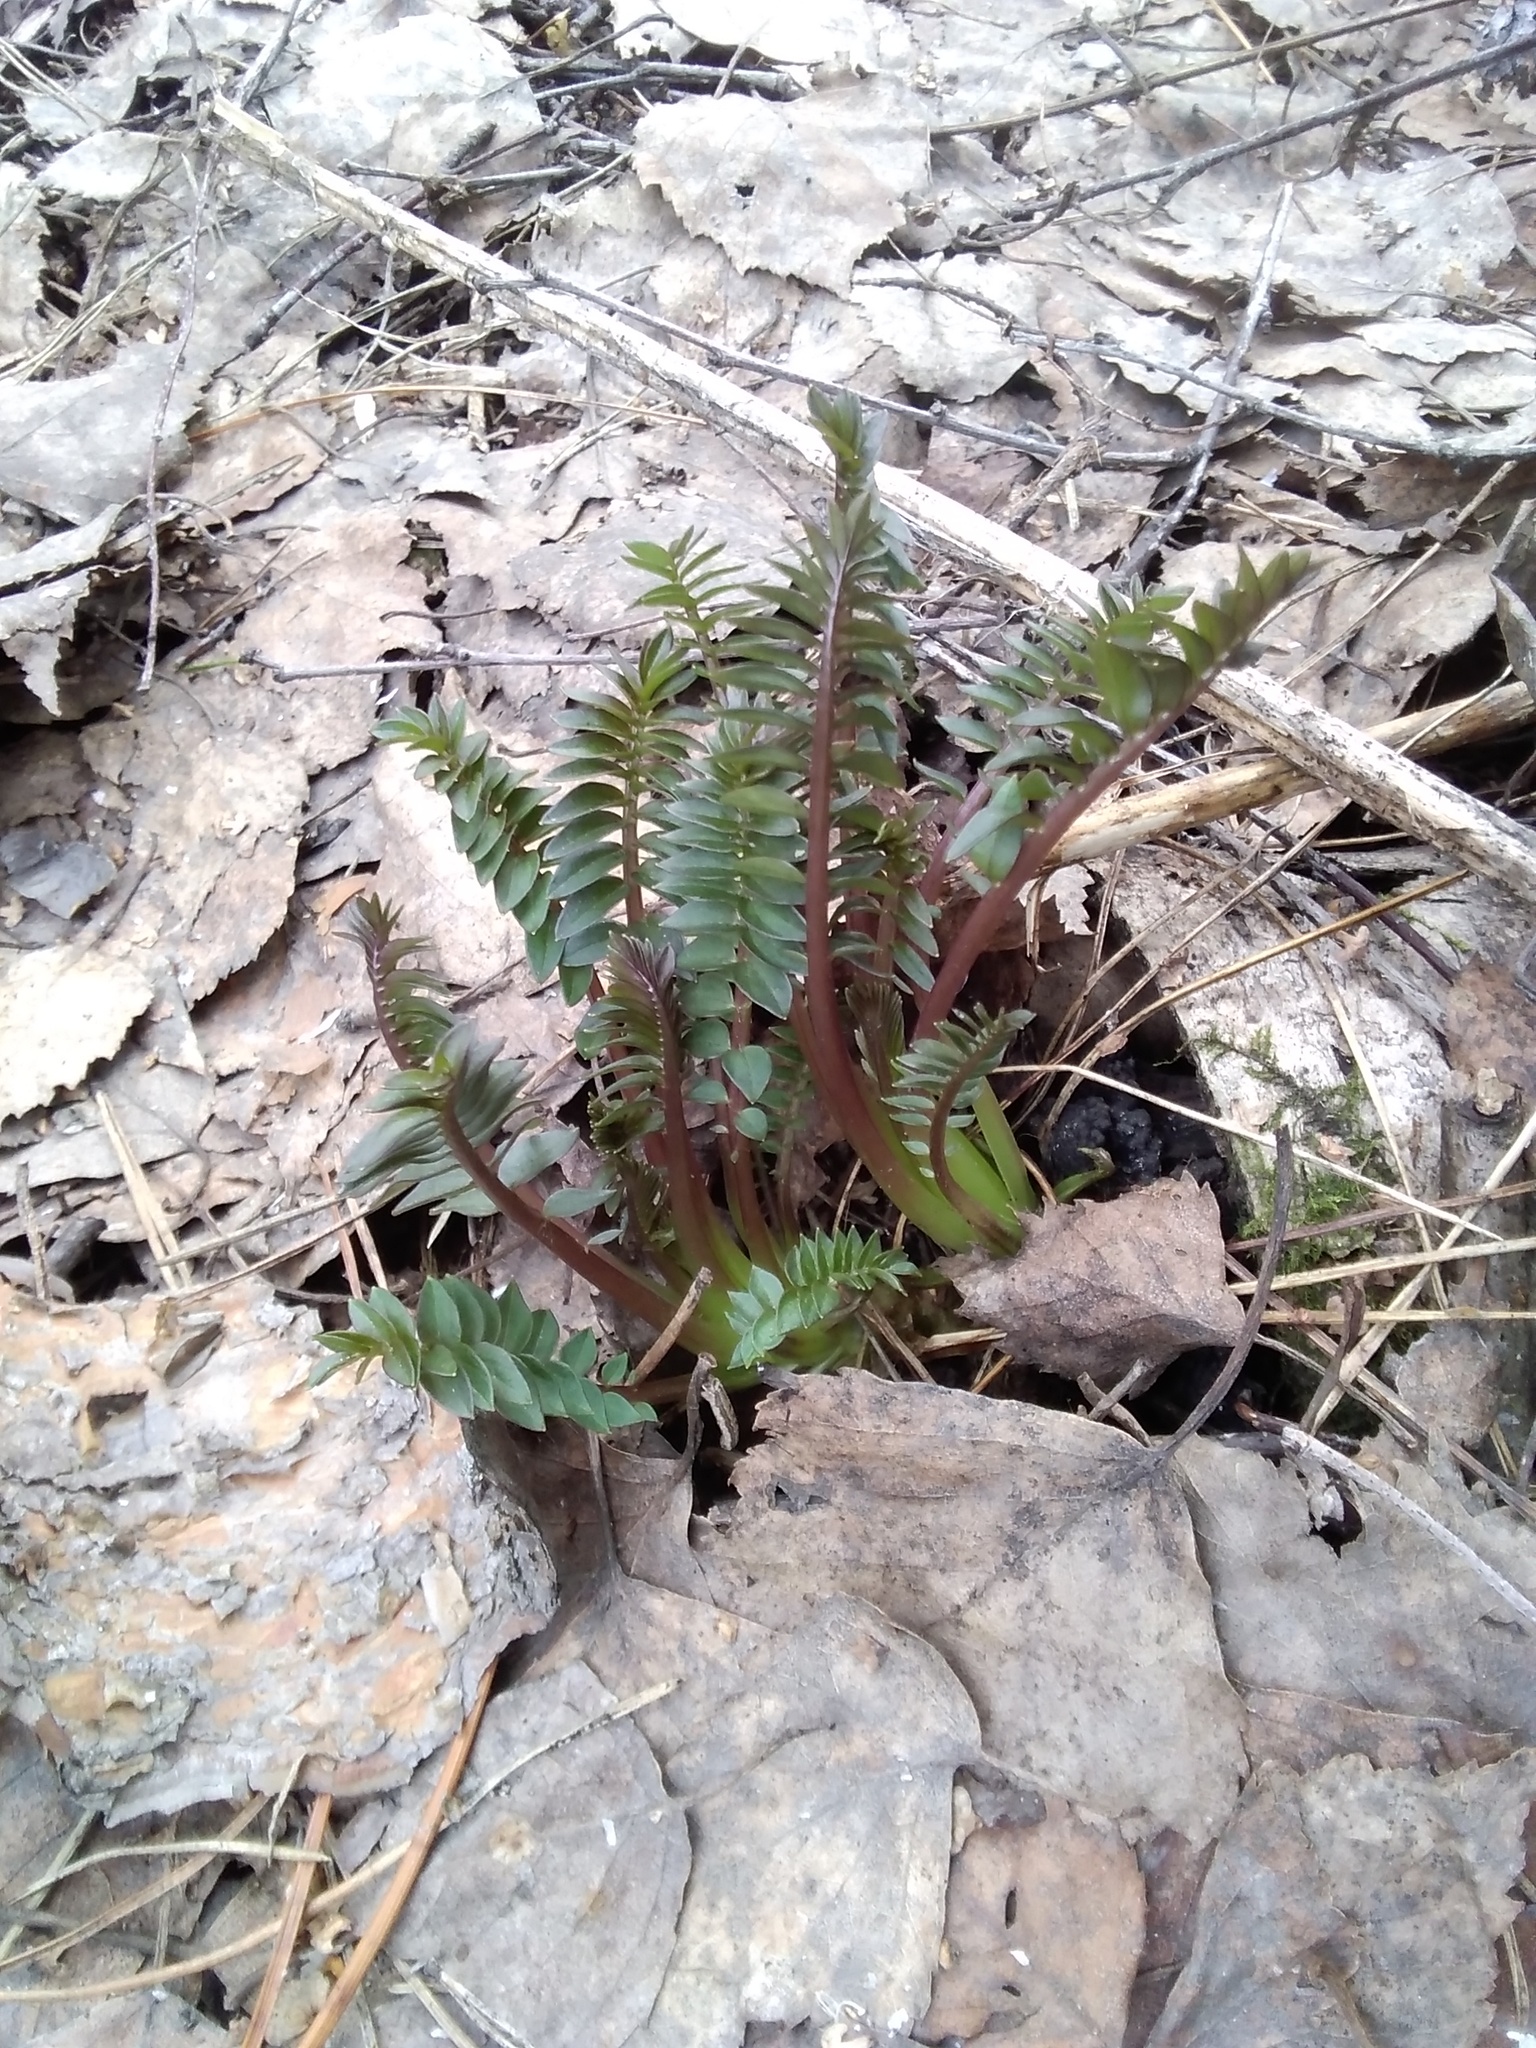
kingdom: Plantae
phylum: Tracheophyta
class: Magnoliopsida
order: Ericales
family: Polemoniaceae
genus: Polemonium
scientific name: Polemonium caeruleum
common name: Jacob's-ladder
